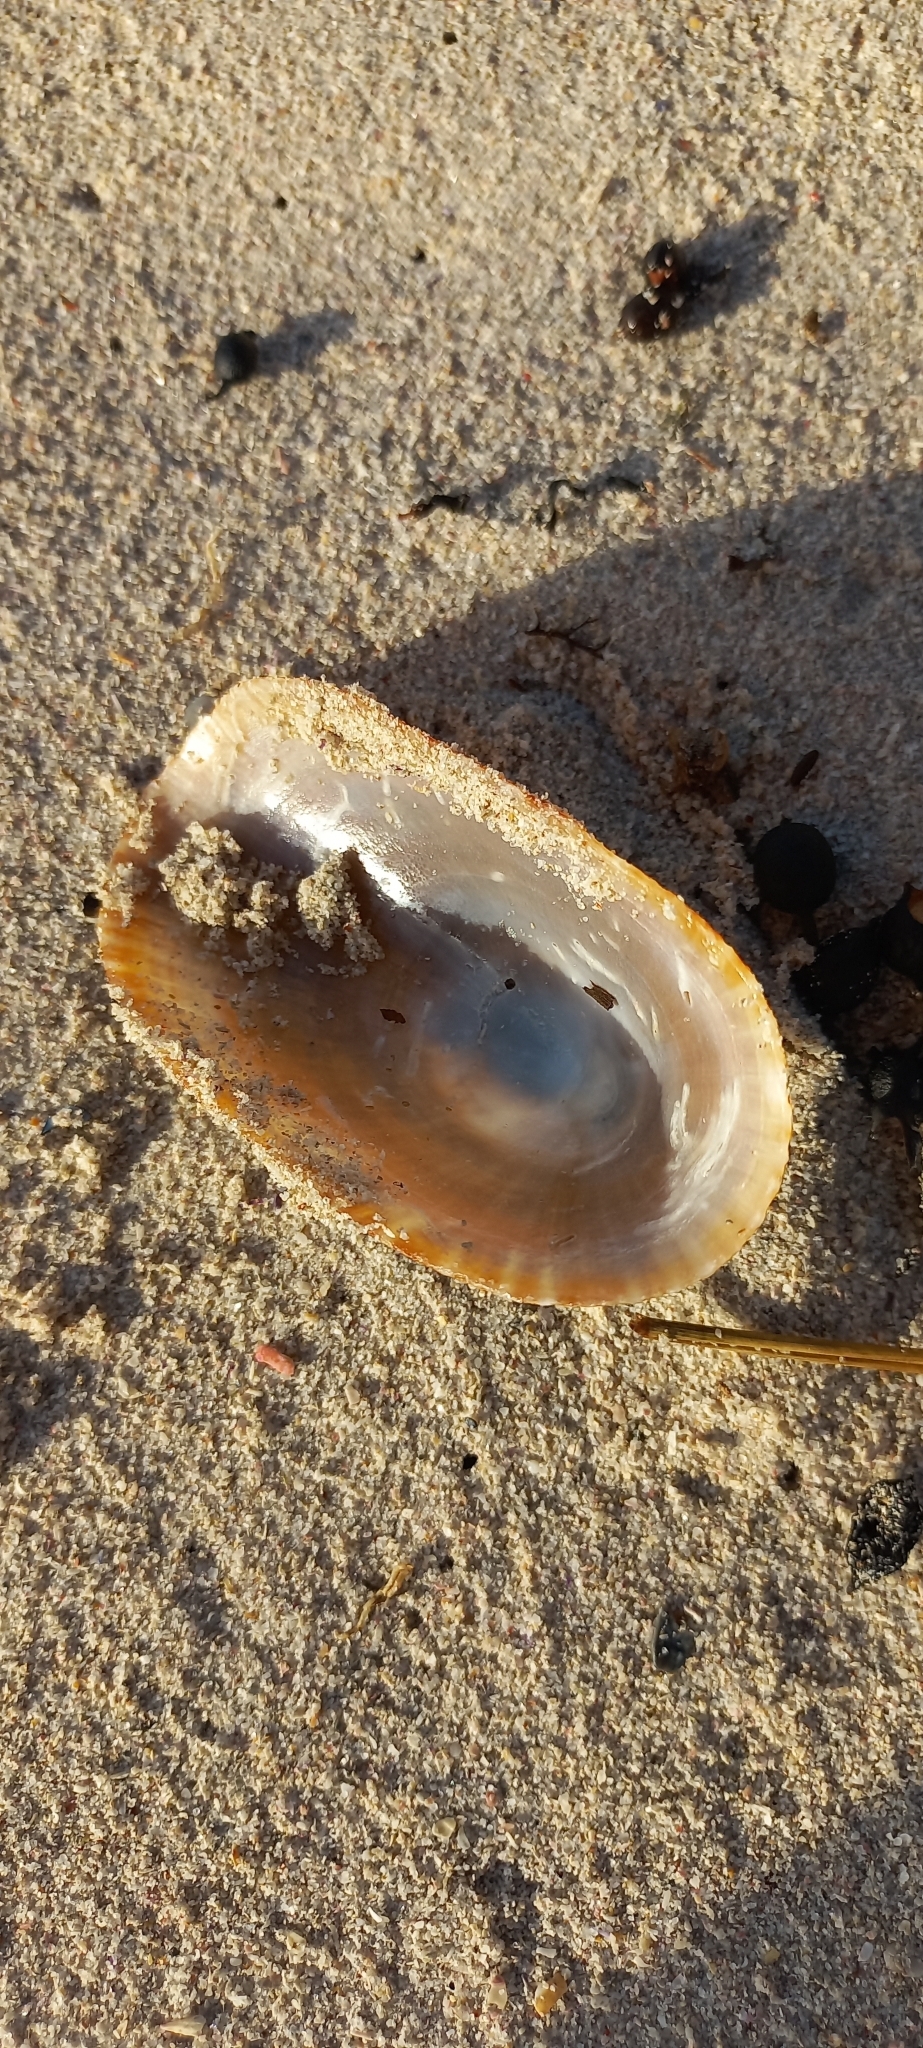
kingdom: Animalia
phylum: Mollusca
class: Gastropoda
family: Patellidae
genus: Cymbula
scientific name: Cymbula compressa
